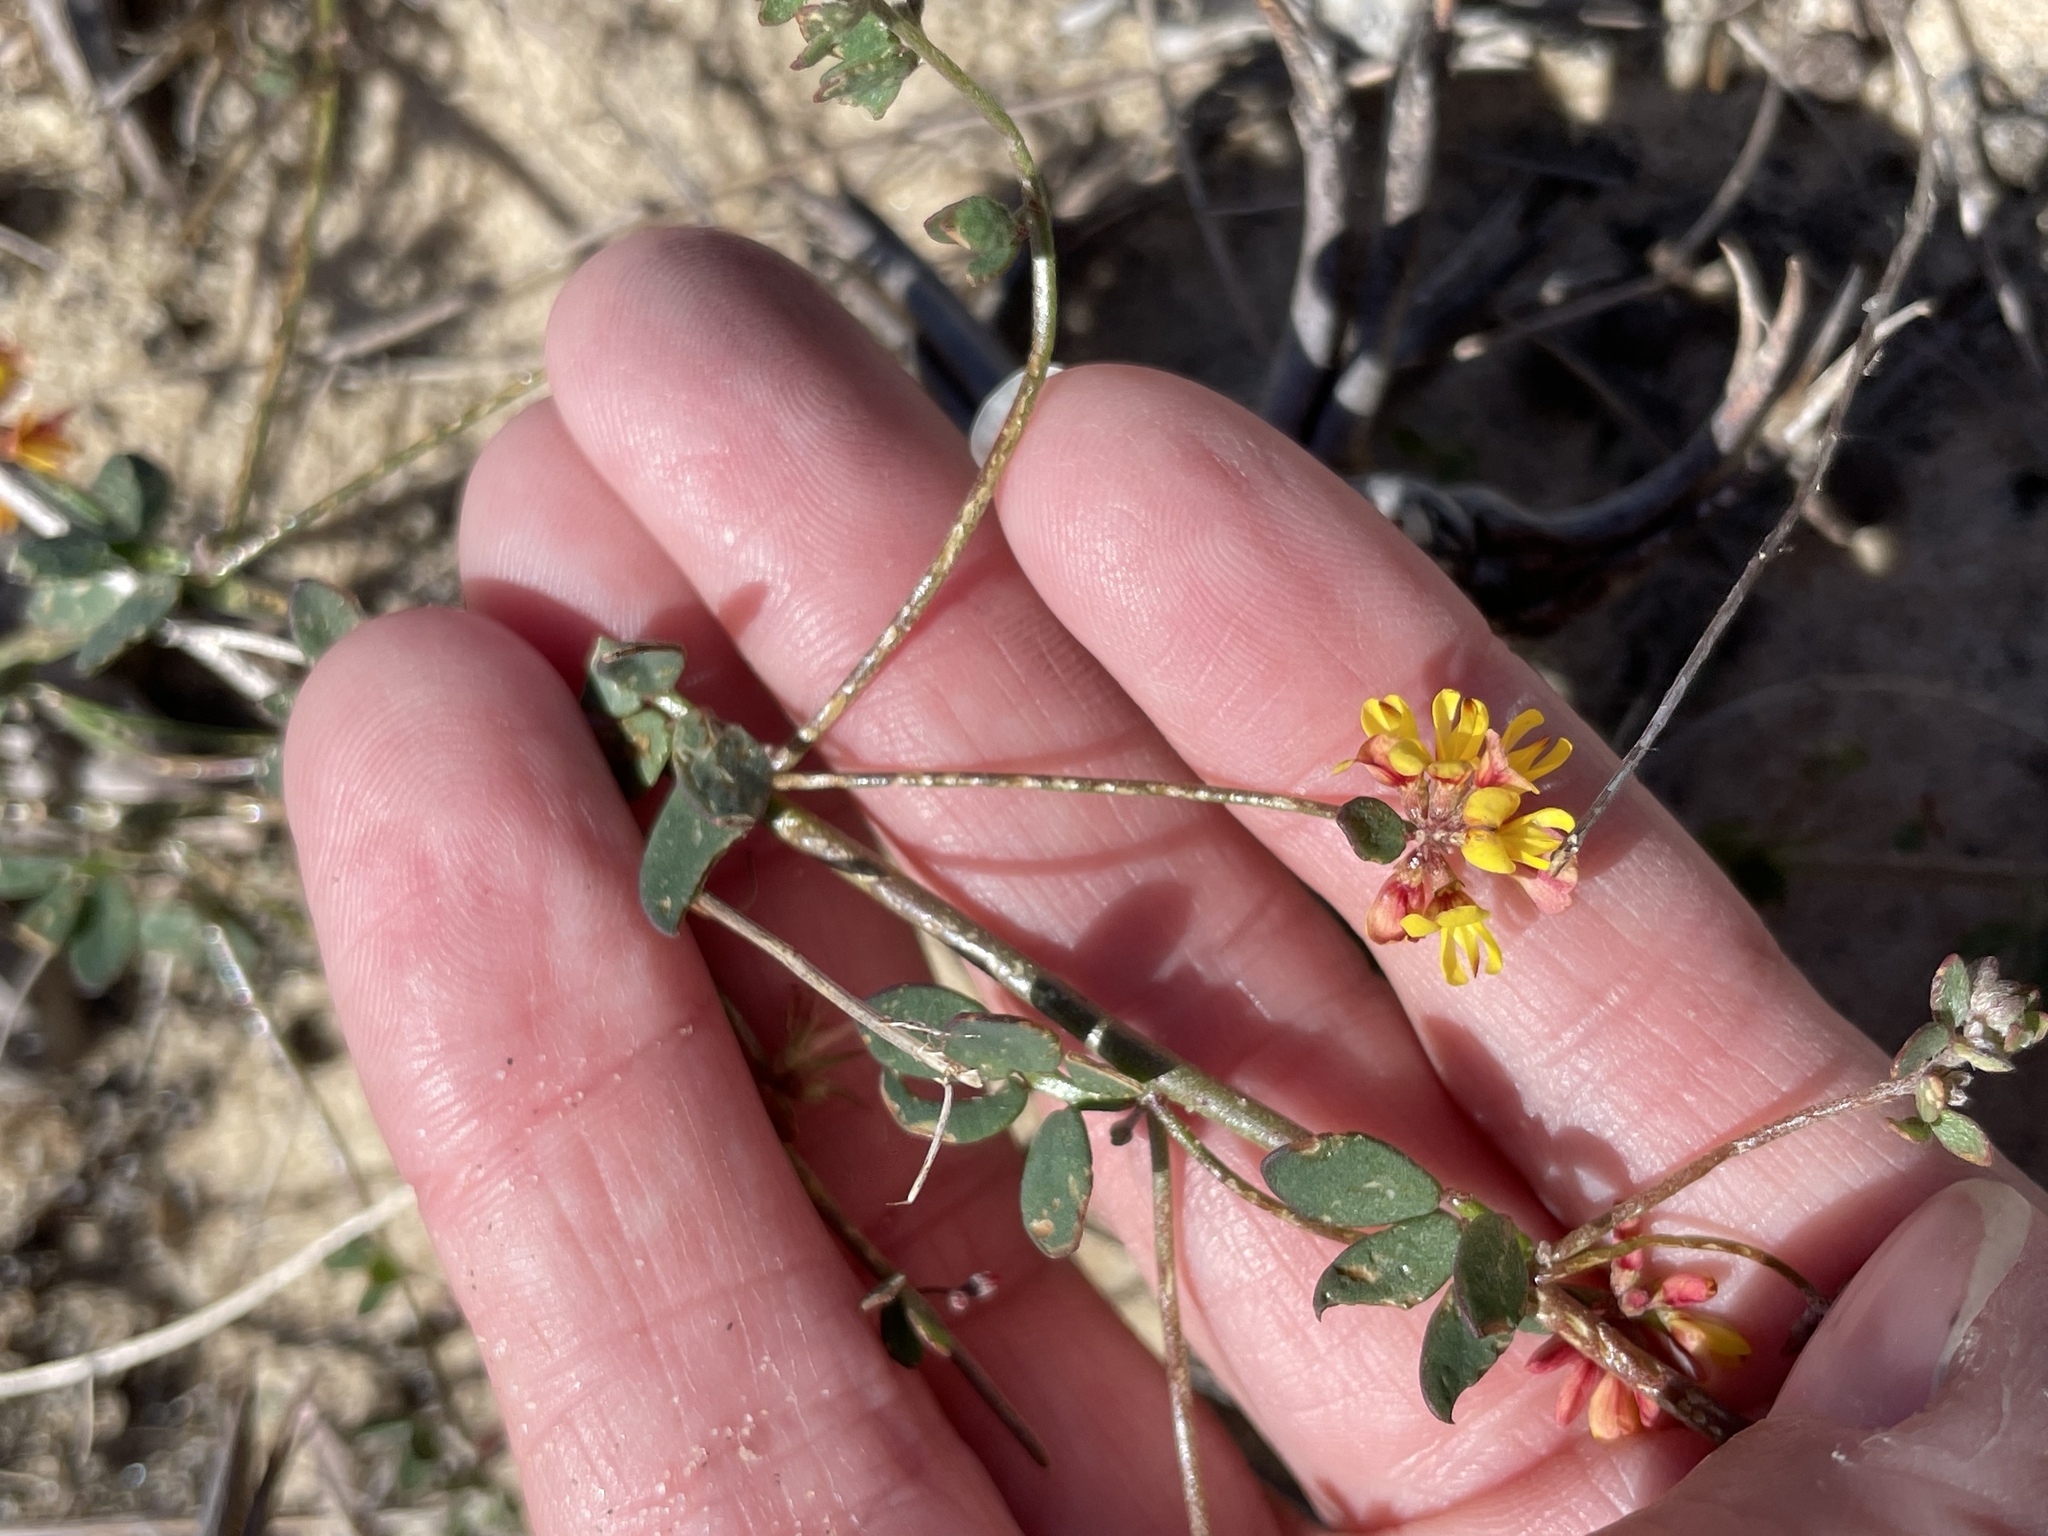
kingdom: Plantae
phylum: Tracheophyta
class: Magnoliopsida
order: Fabales
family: Fabaceae
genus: Acmispon
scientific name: Acmispon prostratus
